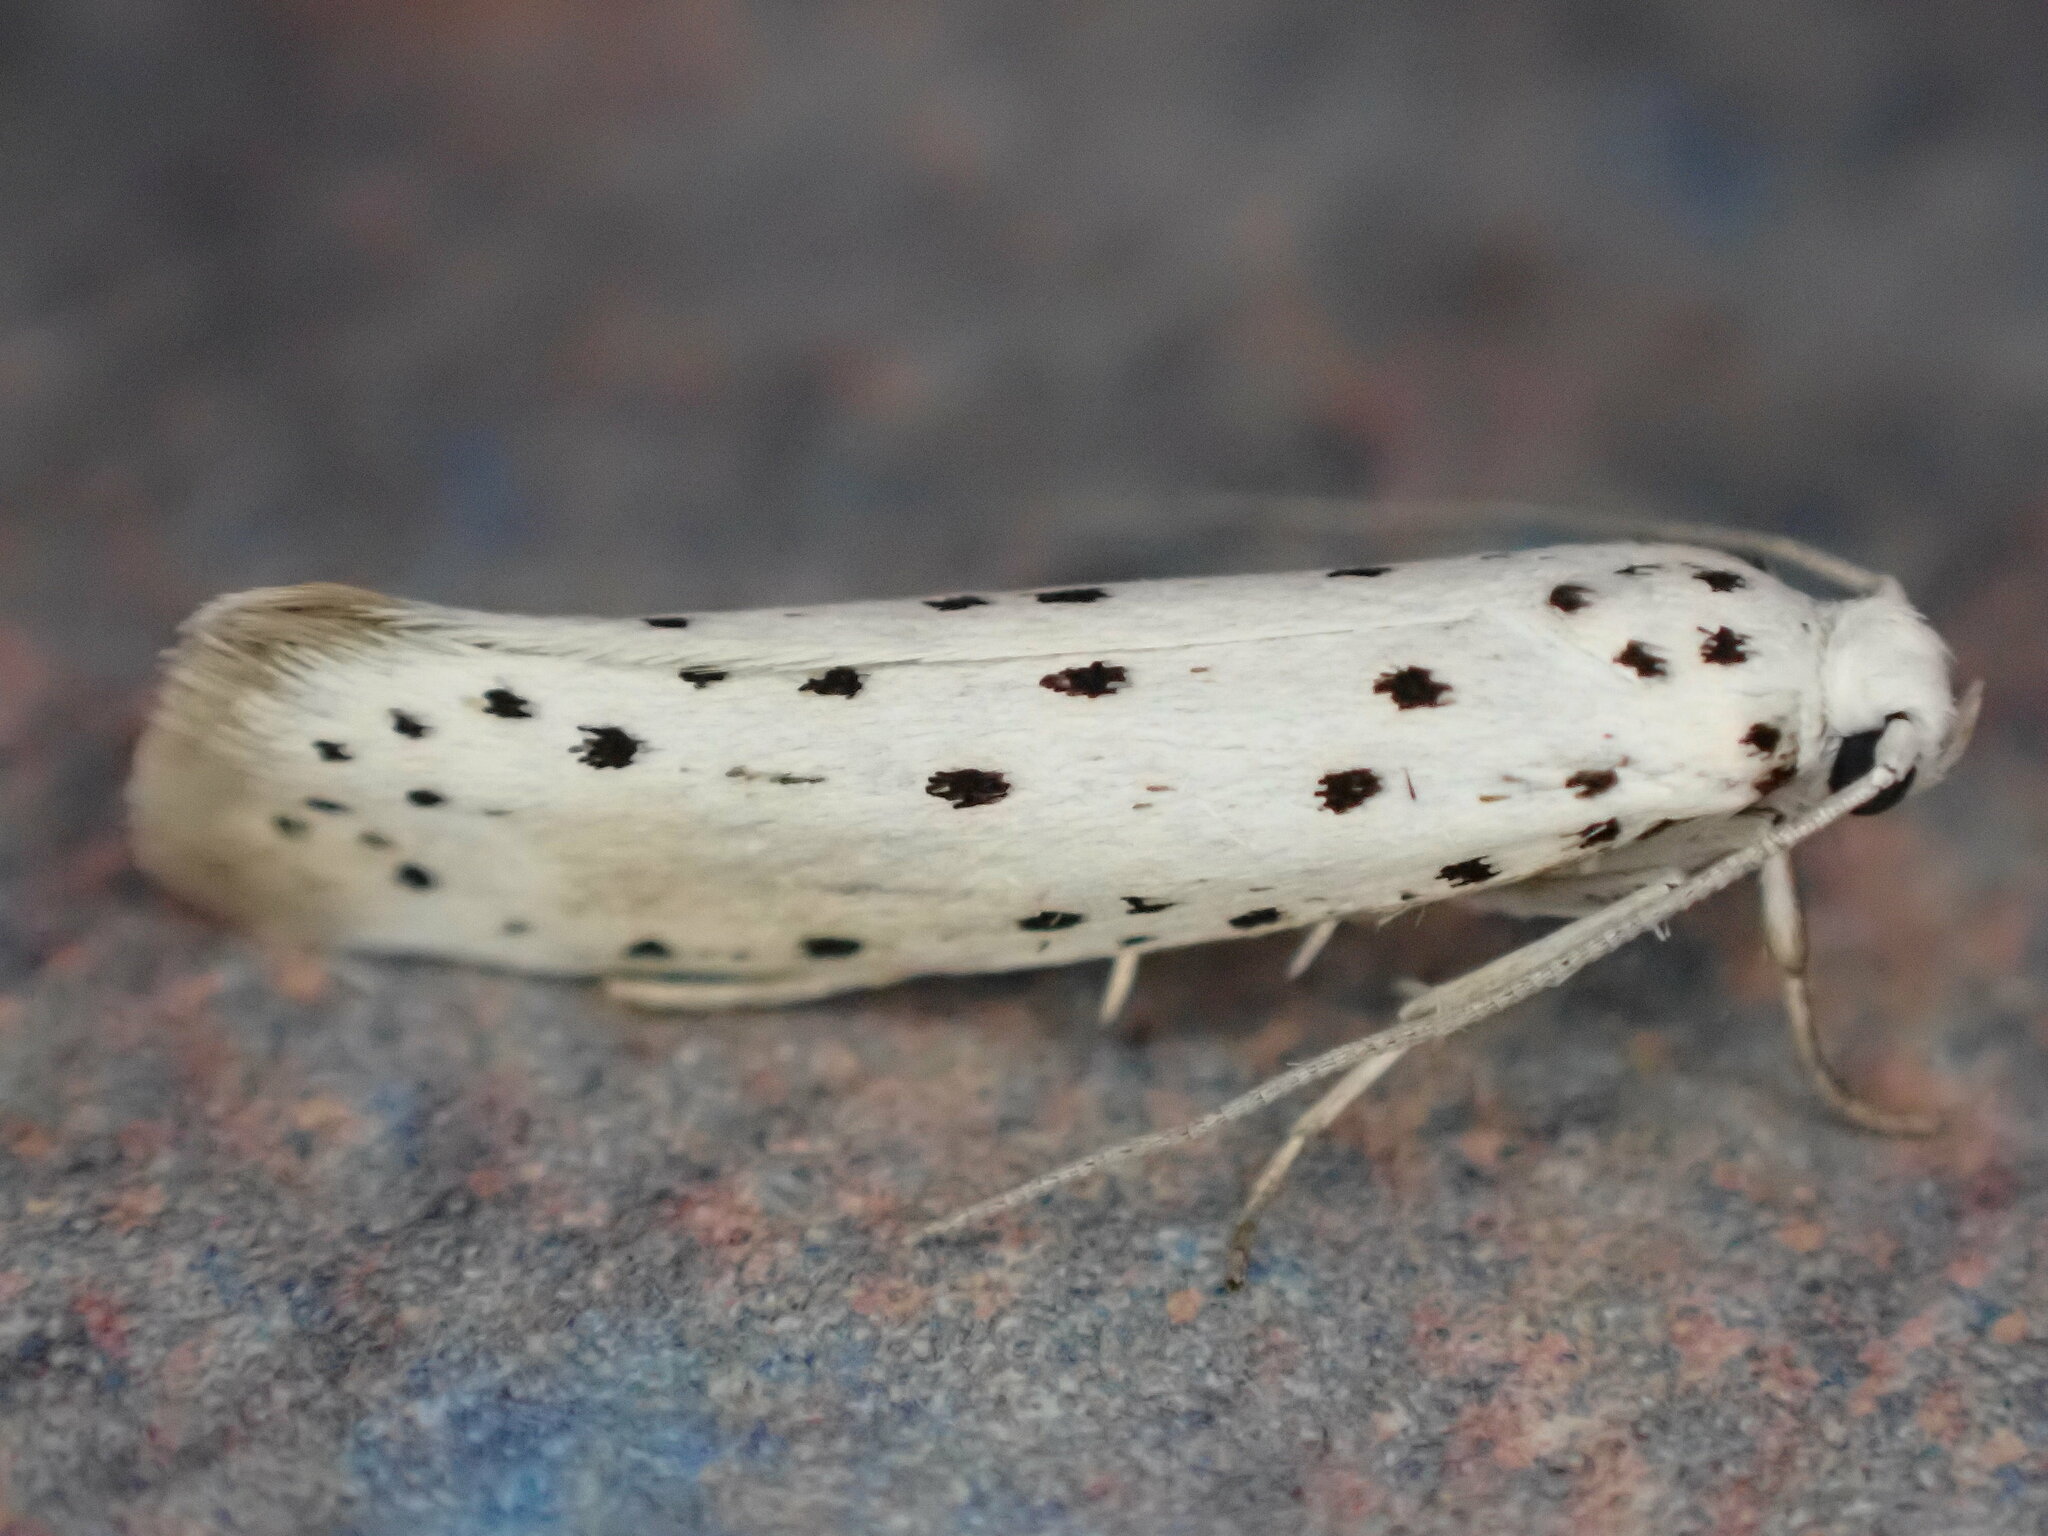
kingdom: Animalia
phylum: Arthropoda
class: Insecta
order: Lepidoptera
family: Yponomeutidae
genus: Yponomeuta
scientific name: Yponomeuta padella
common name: Orchard ermine
